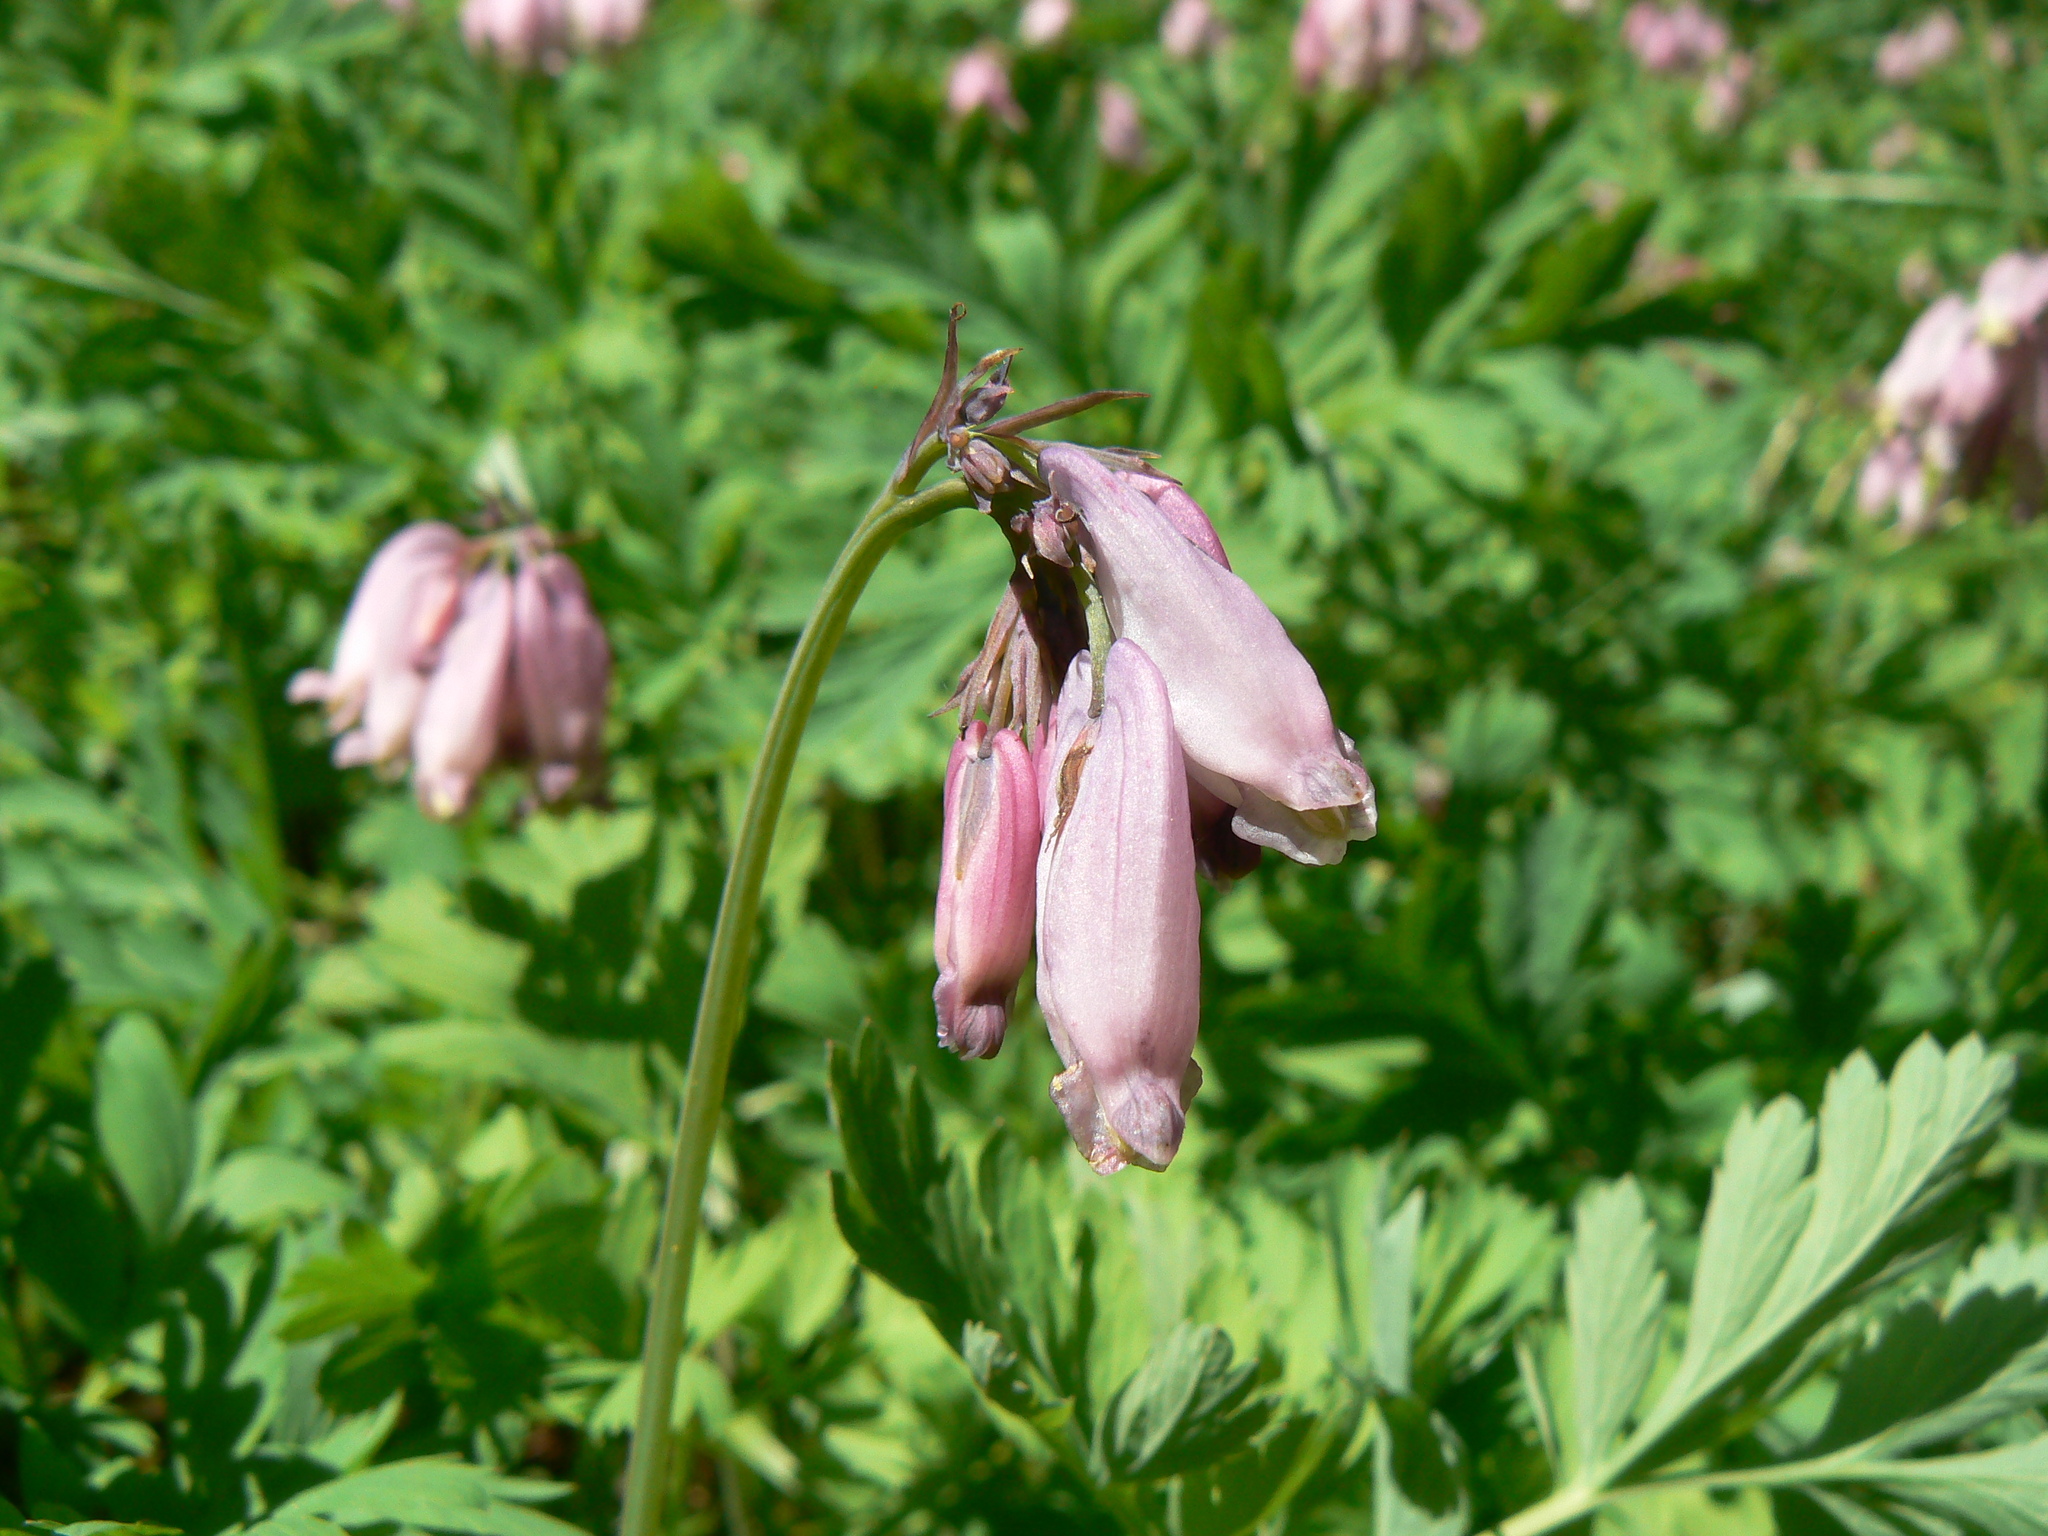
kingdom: Plantae
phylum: Tracheophyta
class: Magnoliopsida
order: Ranunculales
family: Papaveraceae
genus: Dicentra
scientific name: Dicentra formosa
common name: Bleeding-heart
